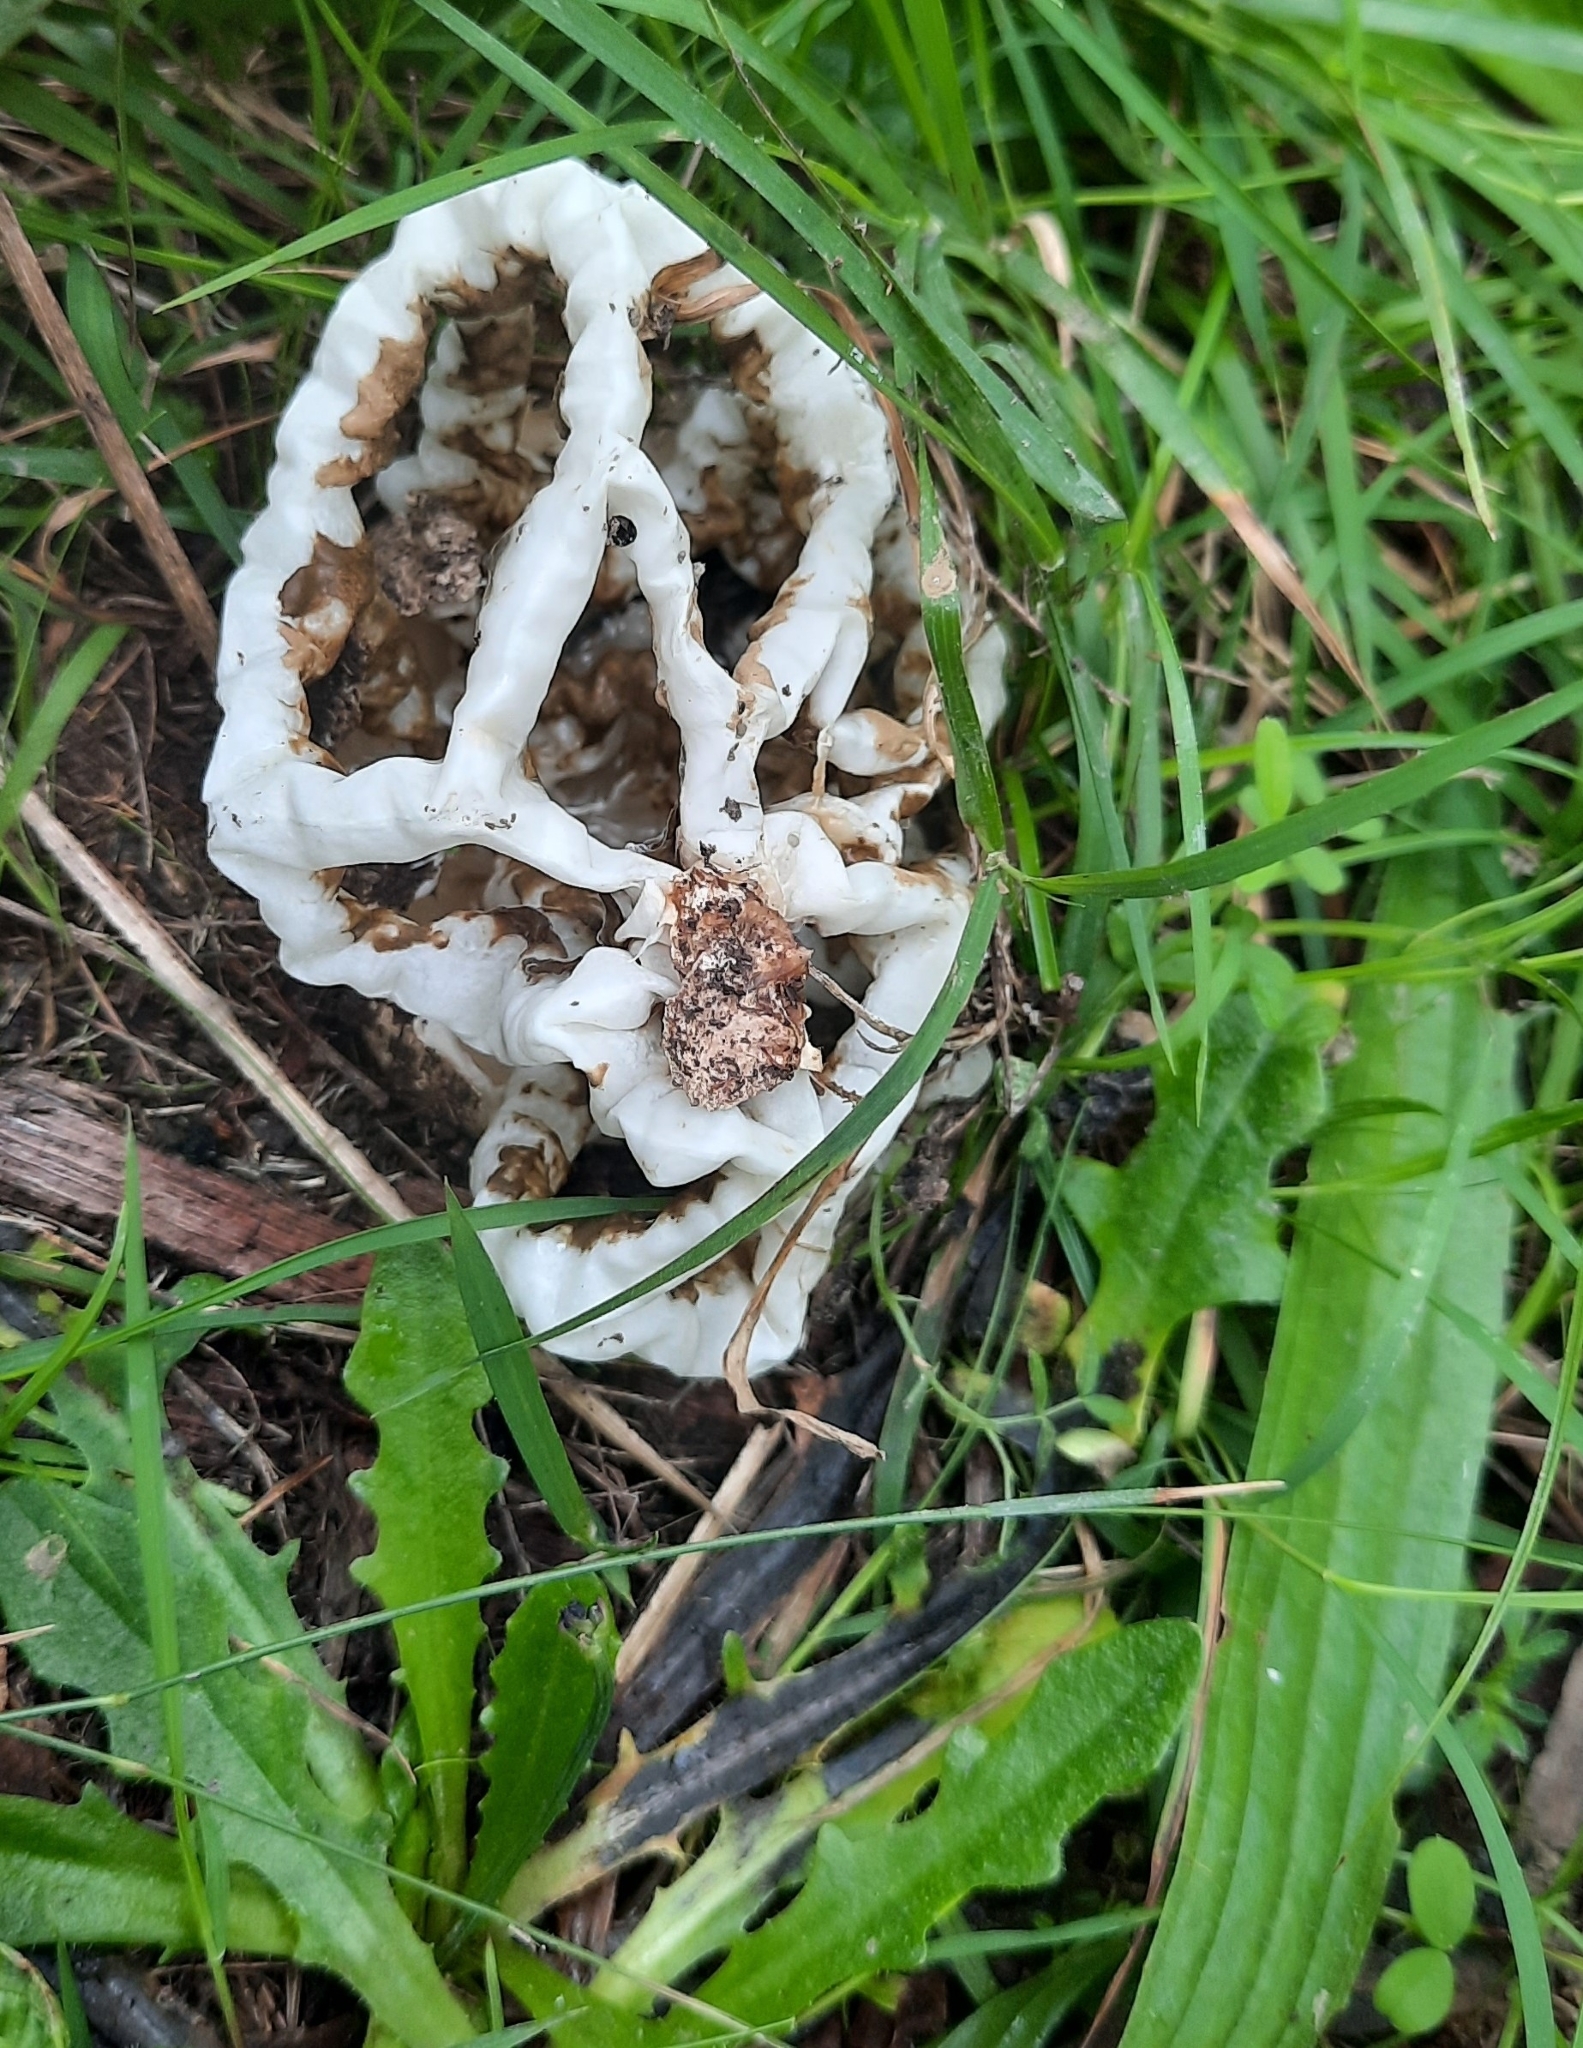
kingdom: Fungi
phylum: Basidiomycota
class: Agaricomycetes
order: Phallales
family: Phallaceae
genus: Ileodictyon
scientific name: Ileodictyon cibarium
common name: Basket fungus
